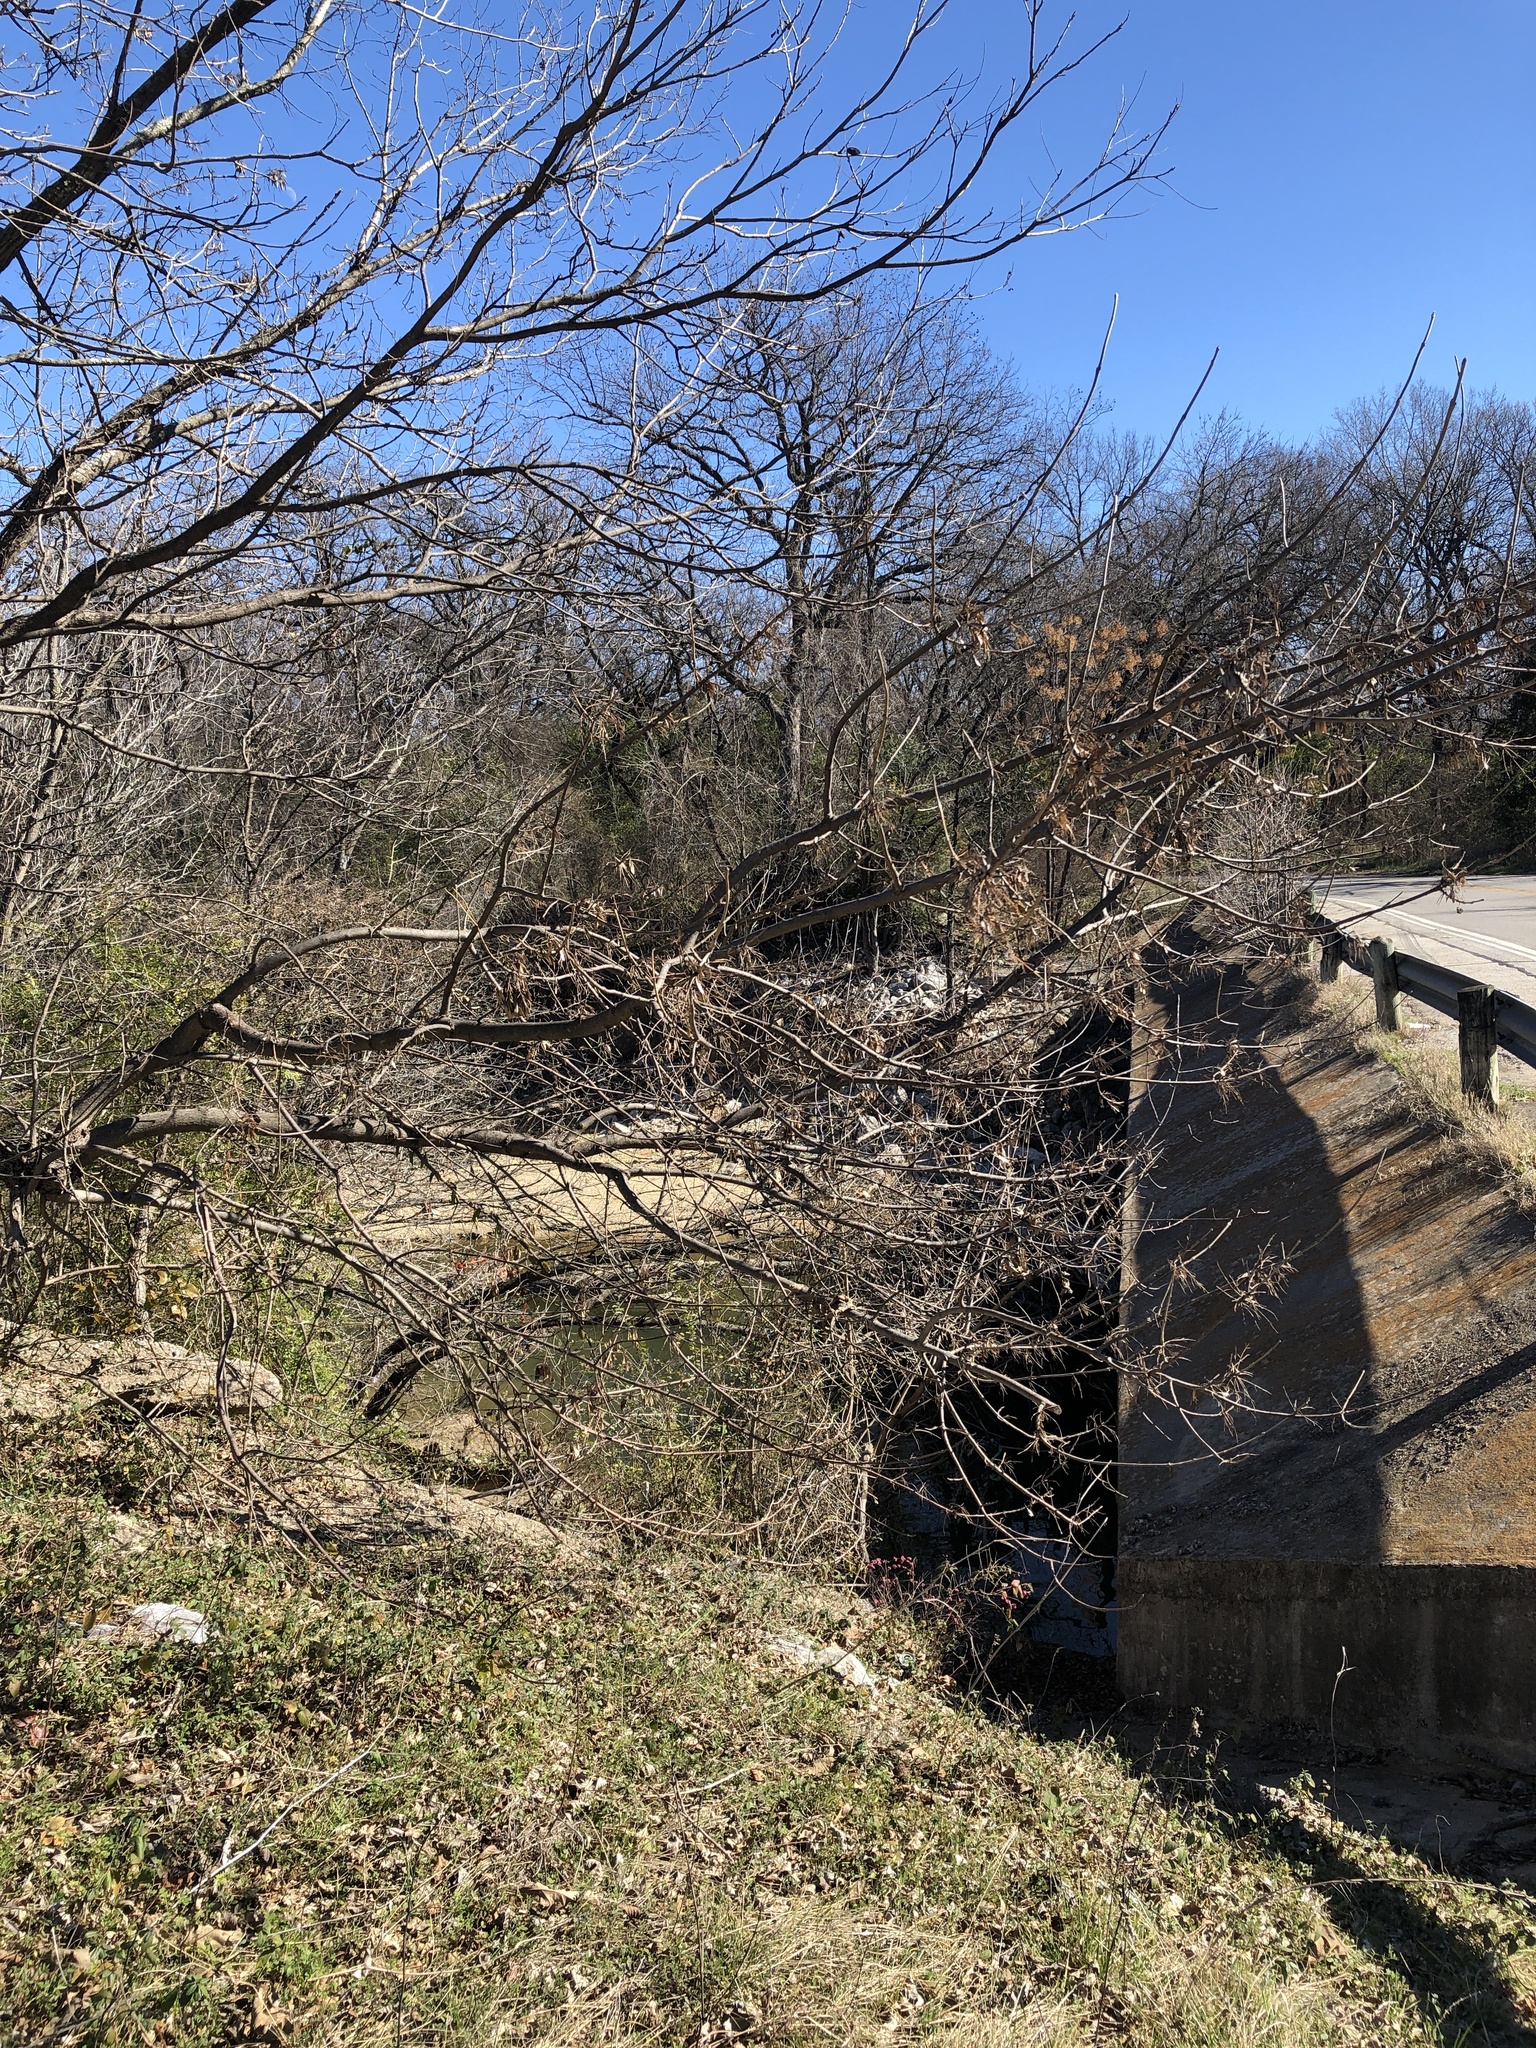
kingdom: Plantae
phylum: Tracheophyta
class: Magnoliopsida
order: Lamiales
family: Oleaceae
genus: Fraxinus
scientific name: Fraxinus pennsylvanica
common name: Green ash
